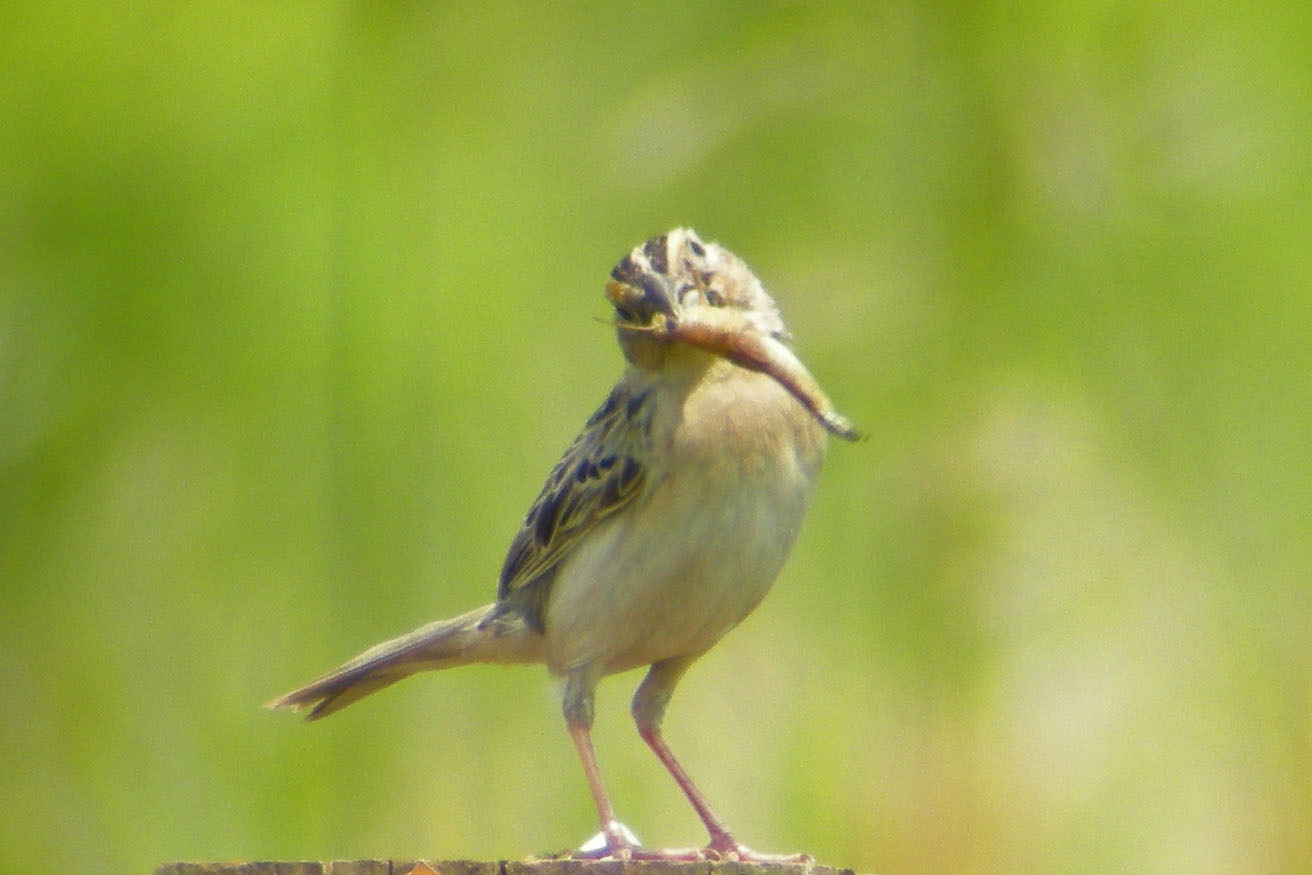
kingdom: Animalia
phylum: Chordata
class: Aves
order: Passeriformes
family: Passerellidae
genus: Ammodramus
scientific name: Ammodramus savannarum
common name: Grasshopper sparrow
